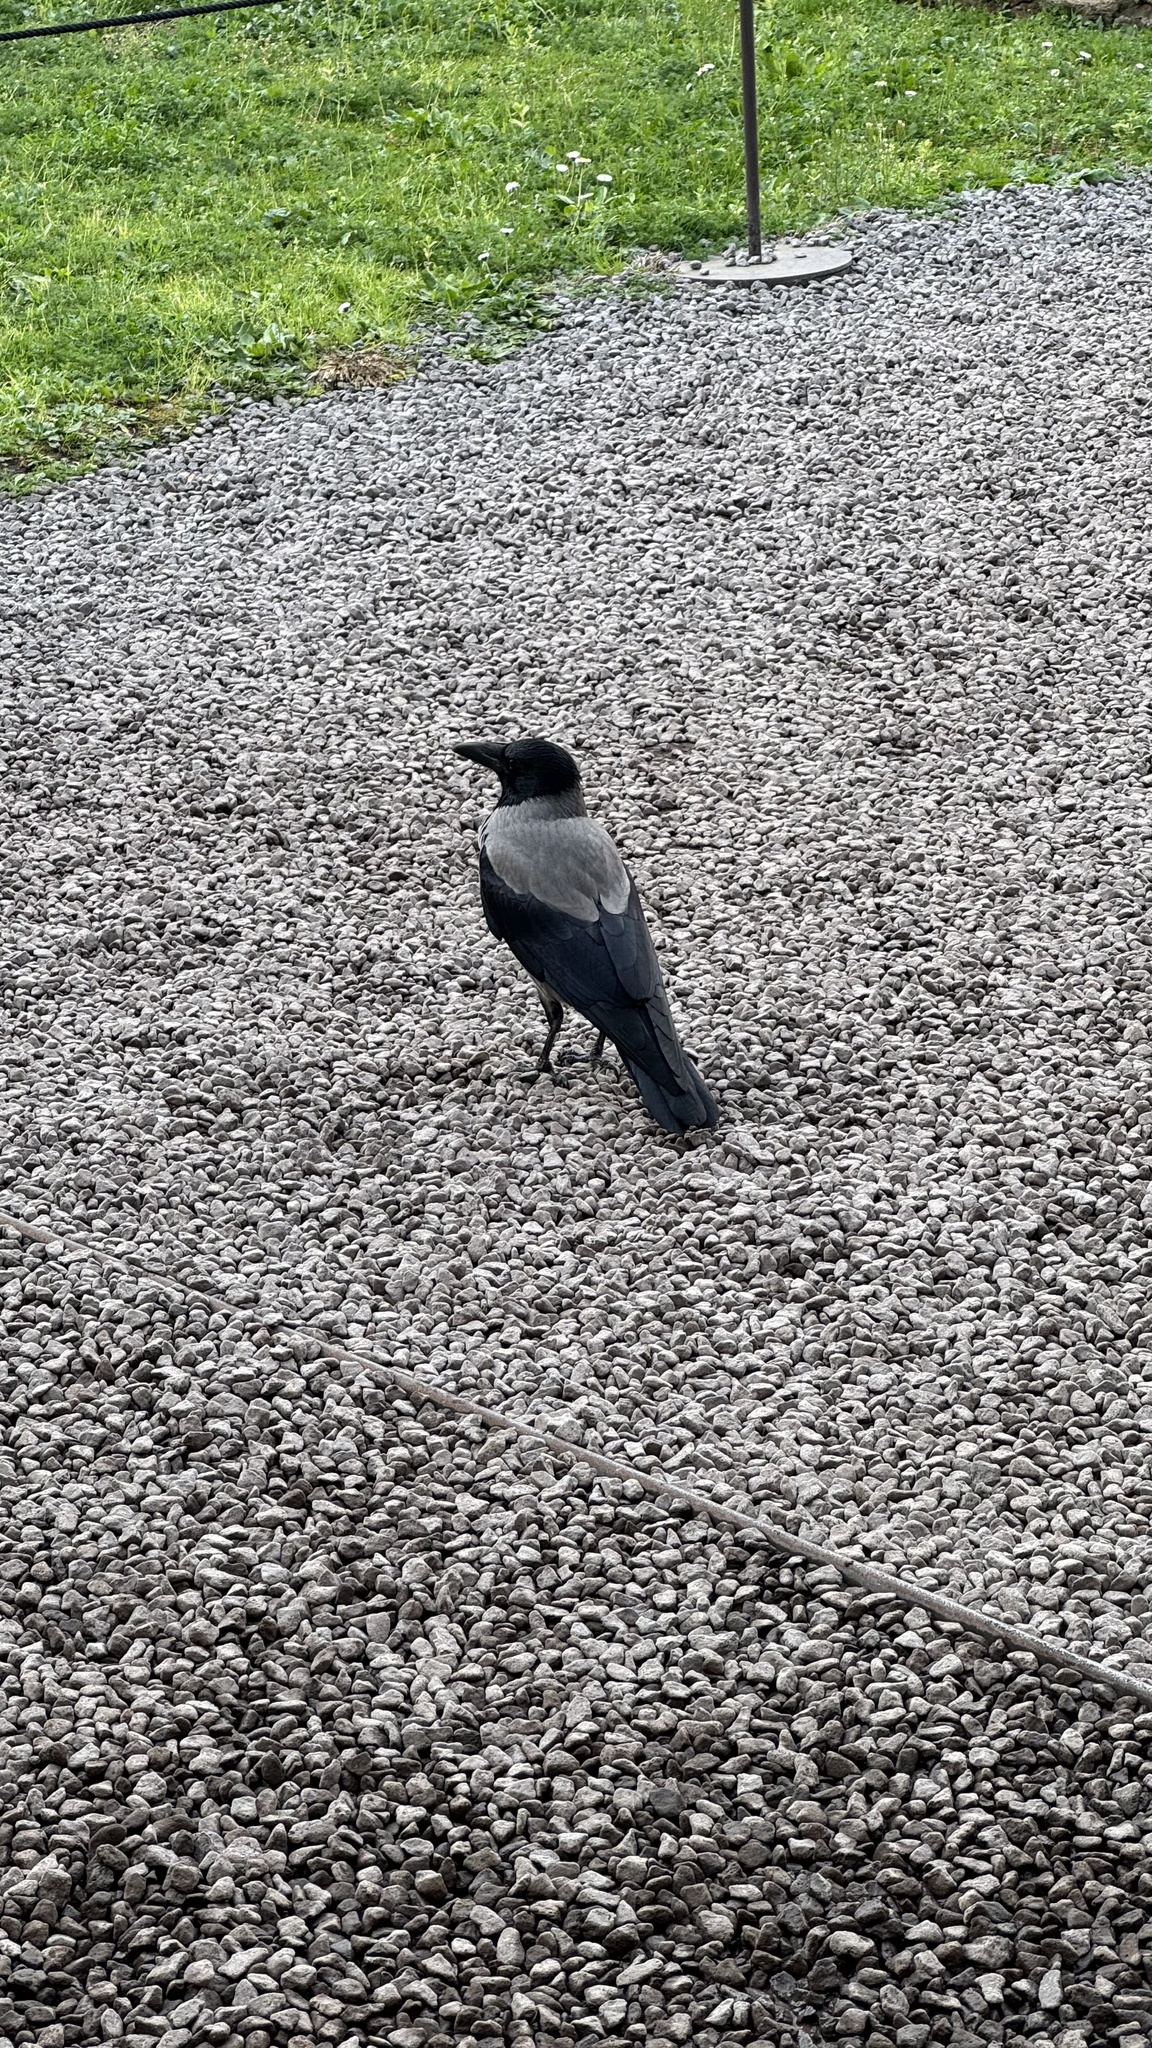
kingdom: Animalia
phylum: Chordata
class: Aves
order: Passeriformes
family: Corvidae
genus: Corvus
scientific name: Corvus cornix
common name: Hooded crow
